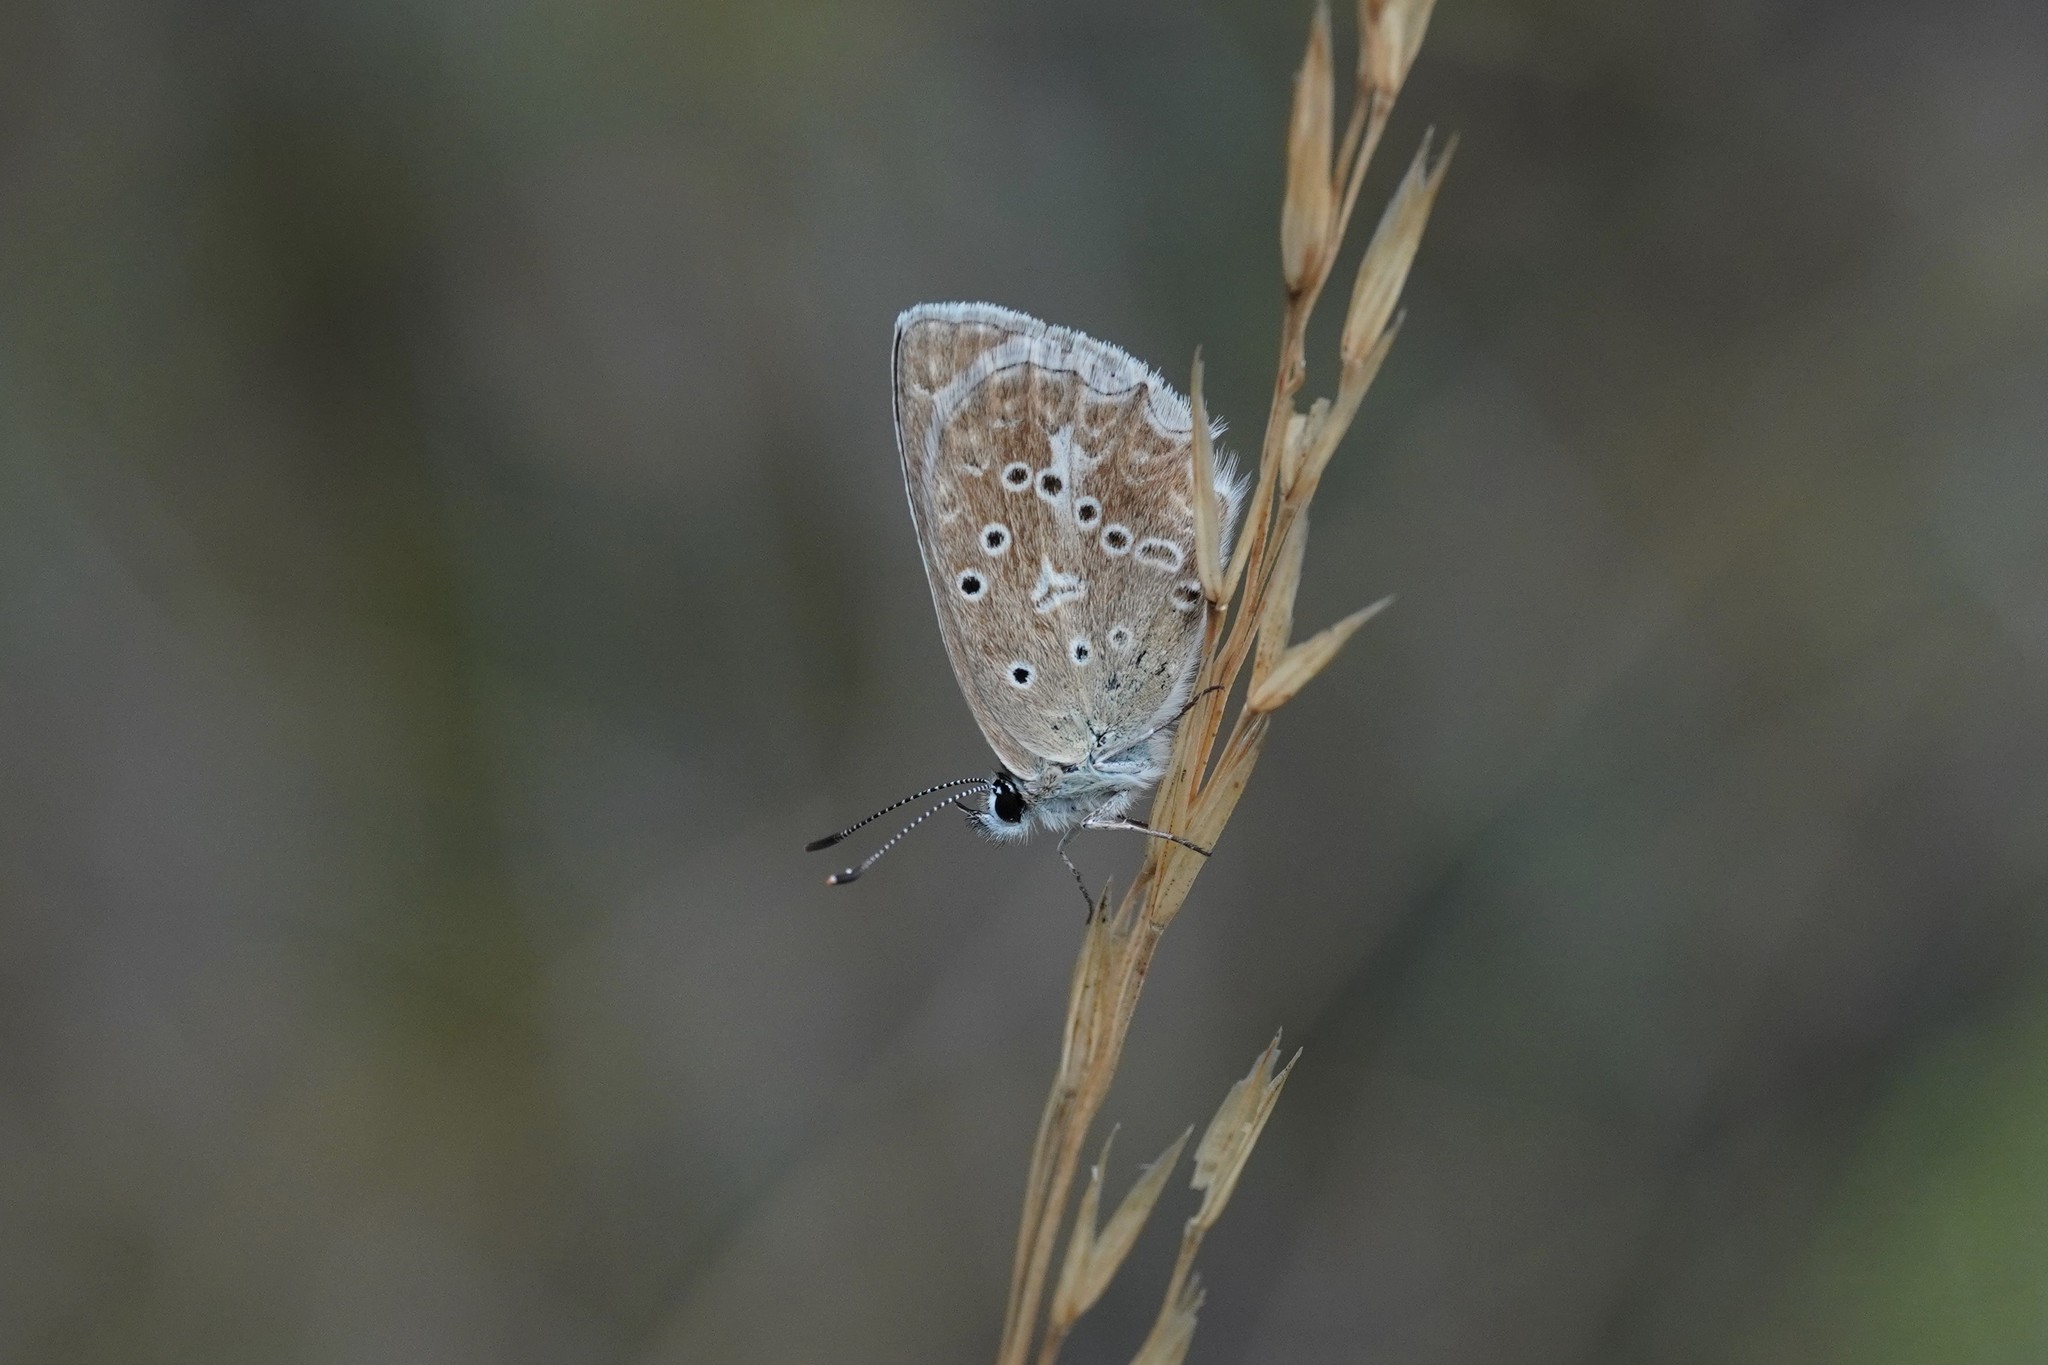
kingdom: Animalia
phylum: Arthropoda
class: Insecta
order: Lepidoptera
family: Lycaenidae
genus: Polyommatus
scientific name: Polyommatus daphnis
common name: Meleager's blue
